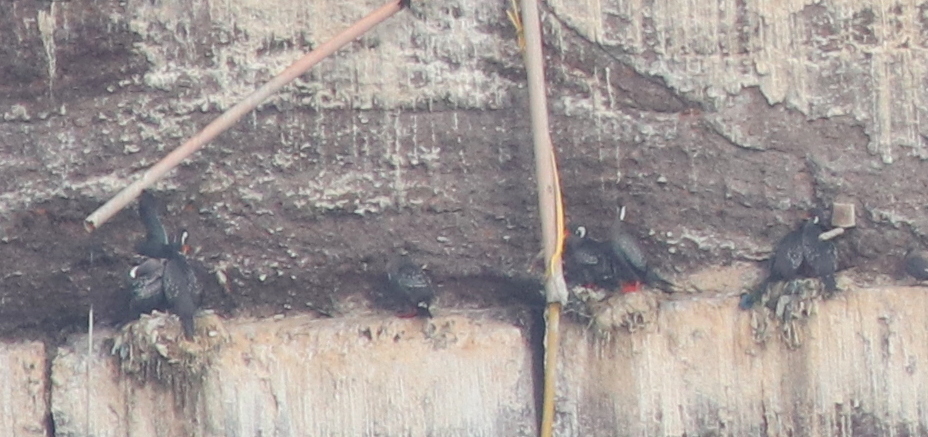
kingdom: Animalia
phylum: Chordata
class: Aves
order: Suliformes
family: Phalacrocoracidae
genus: Phalacrocorax
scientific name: Phalacrocorax gaimardi
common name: Red-legged cormorant
